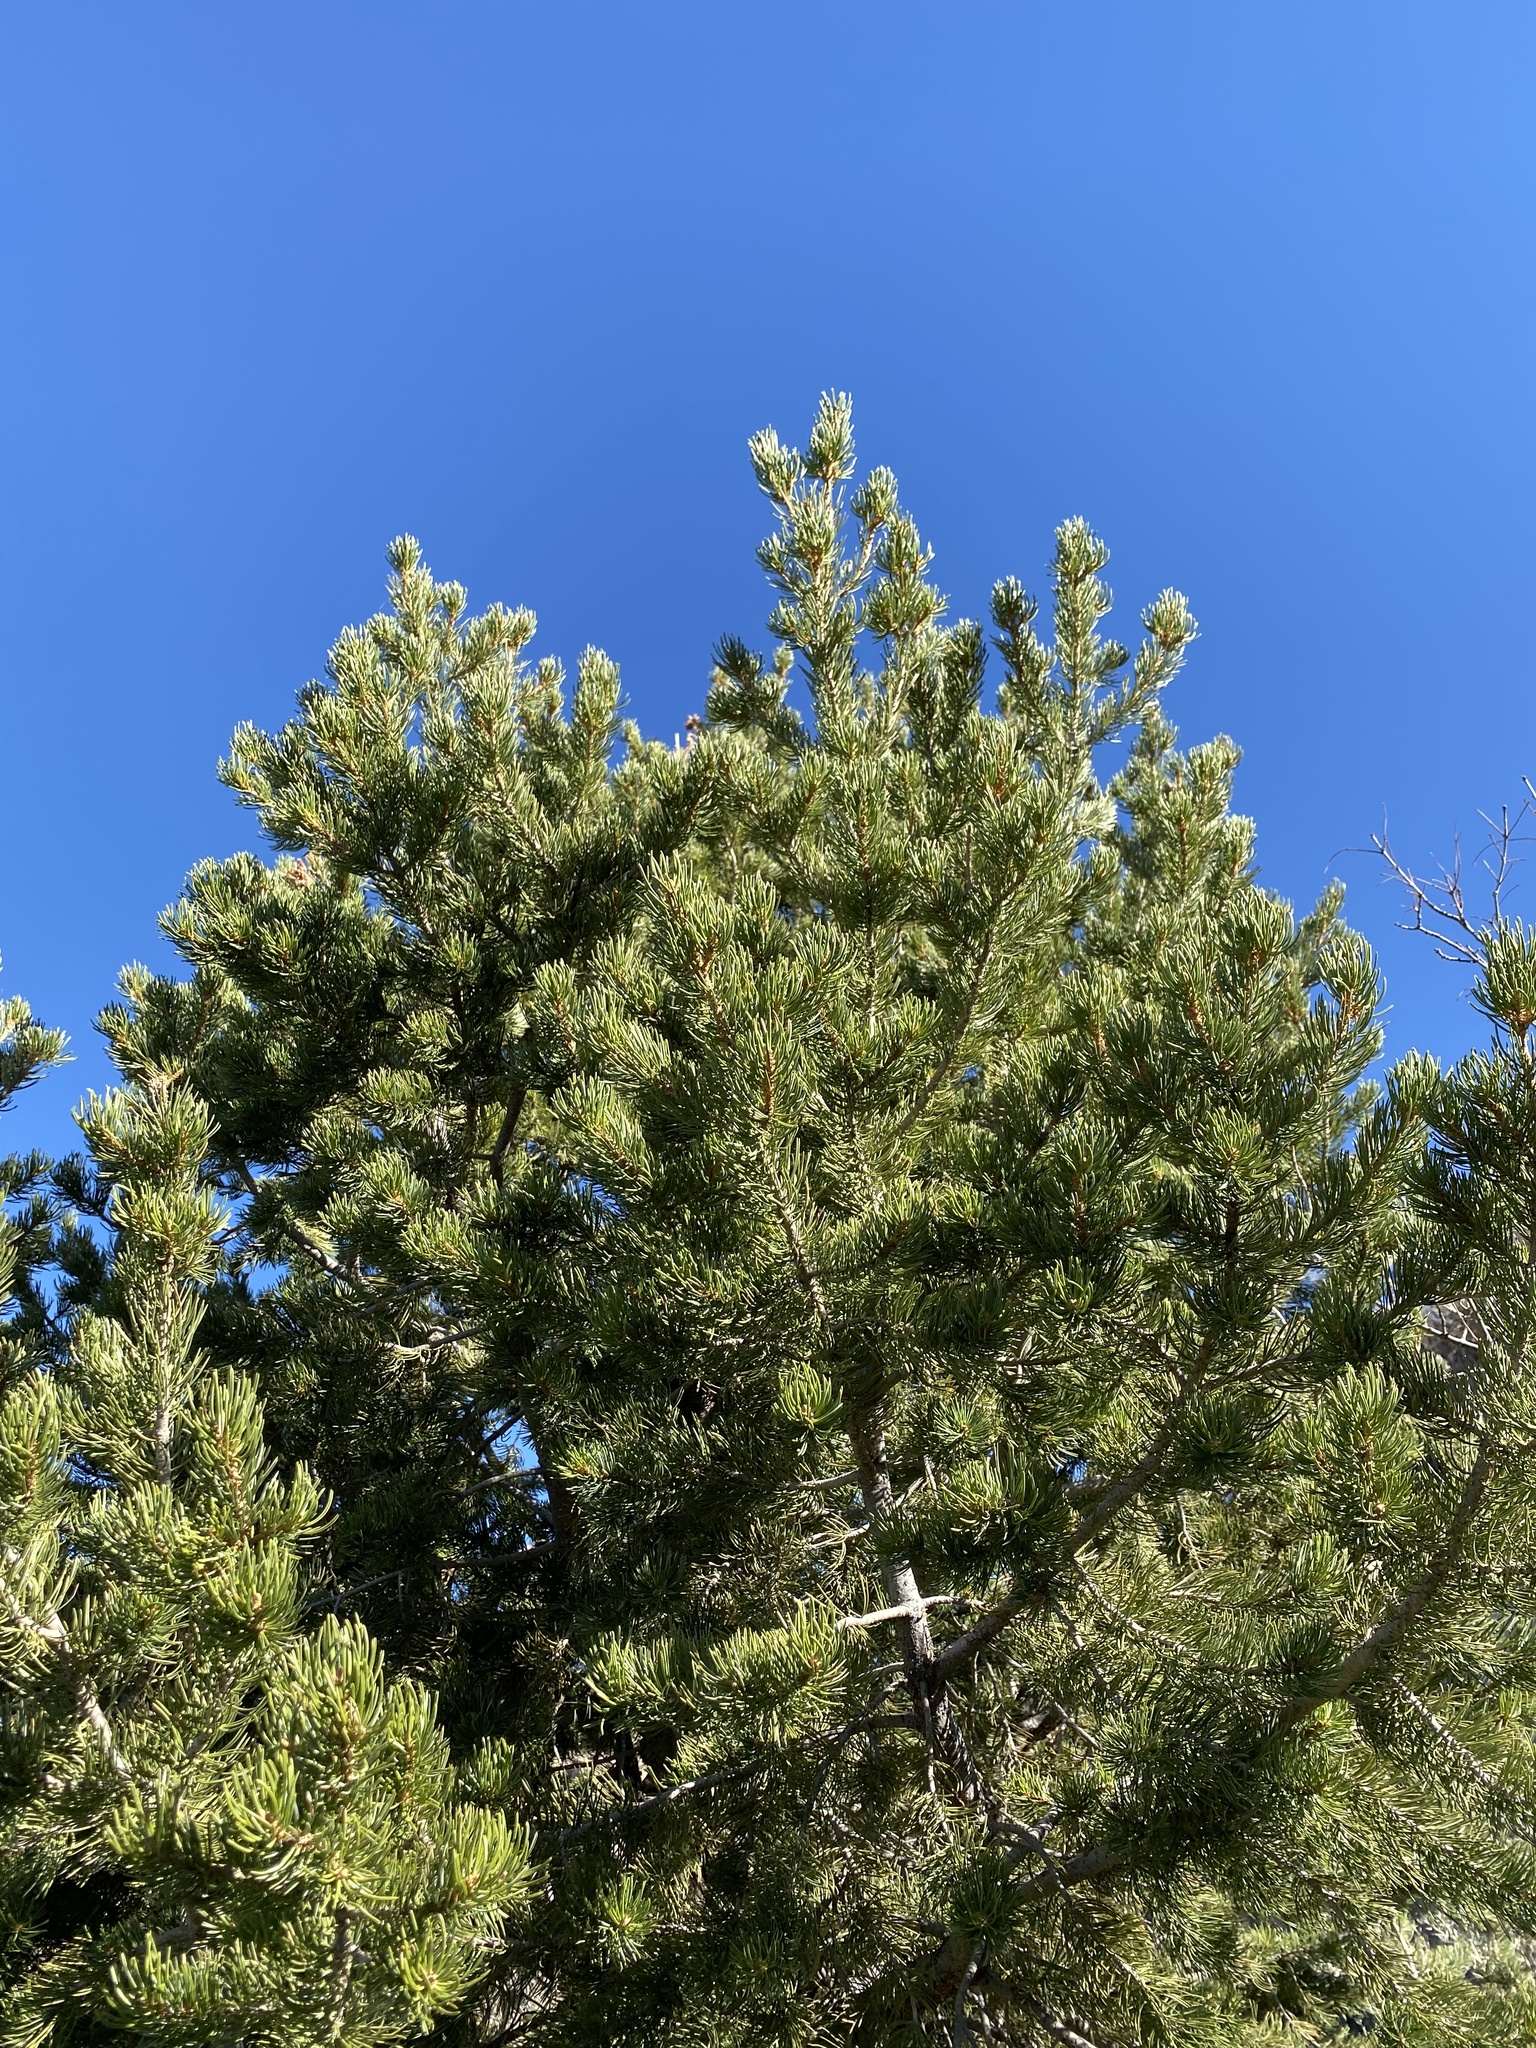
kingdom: Plantae
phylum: Tracheophyta
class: Pinopsida
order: Pinales
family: Pinaceae
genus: Pinus
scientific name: Pinus edulis
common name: Colorado pinyon
